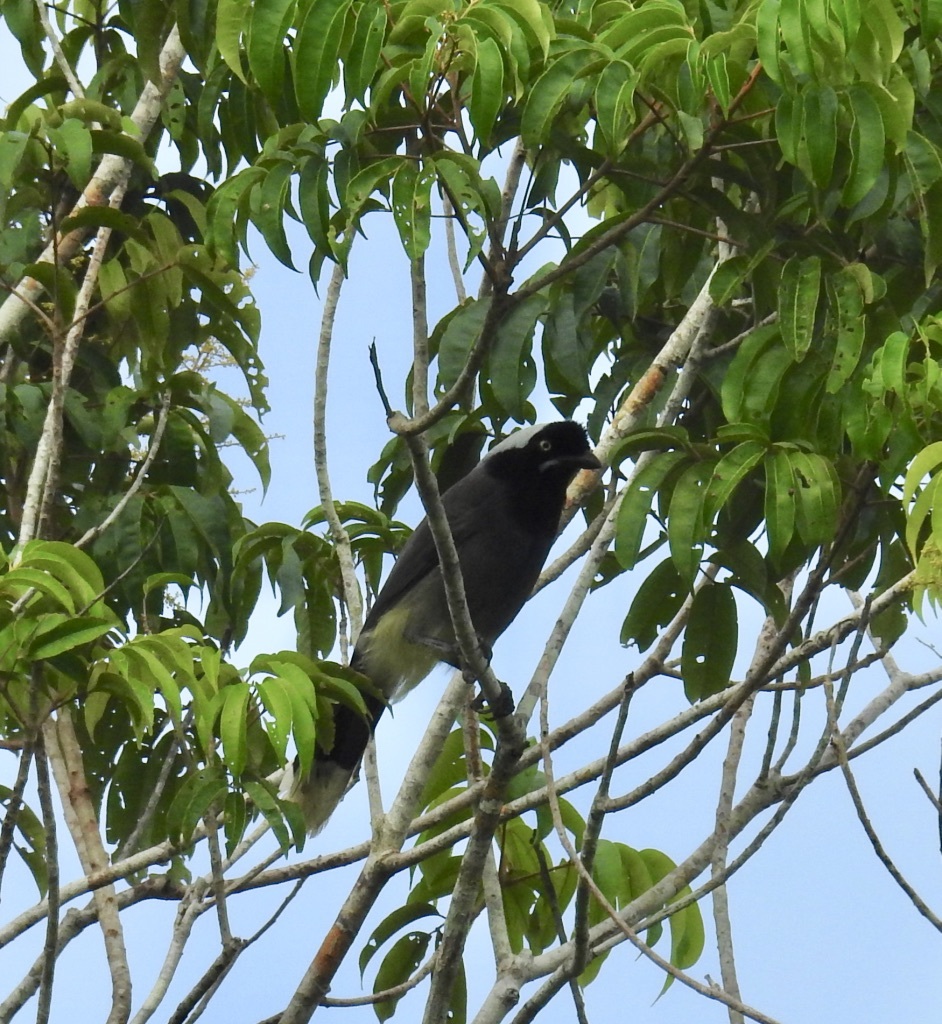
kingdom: Animalia
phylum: Chordata
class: Aves
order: Passeriformes
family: Corvidae
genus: Cyanocorax
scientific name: Cyanocorax heilprini
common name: Azure-naped jay
